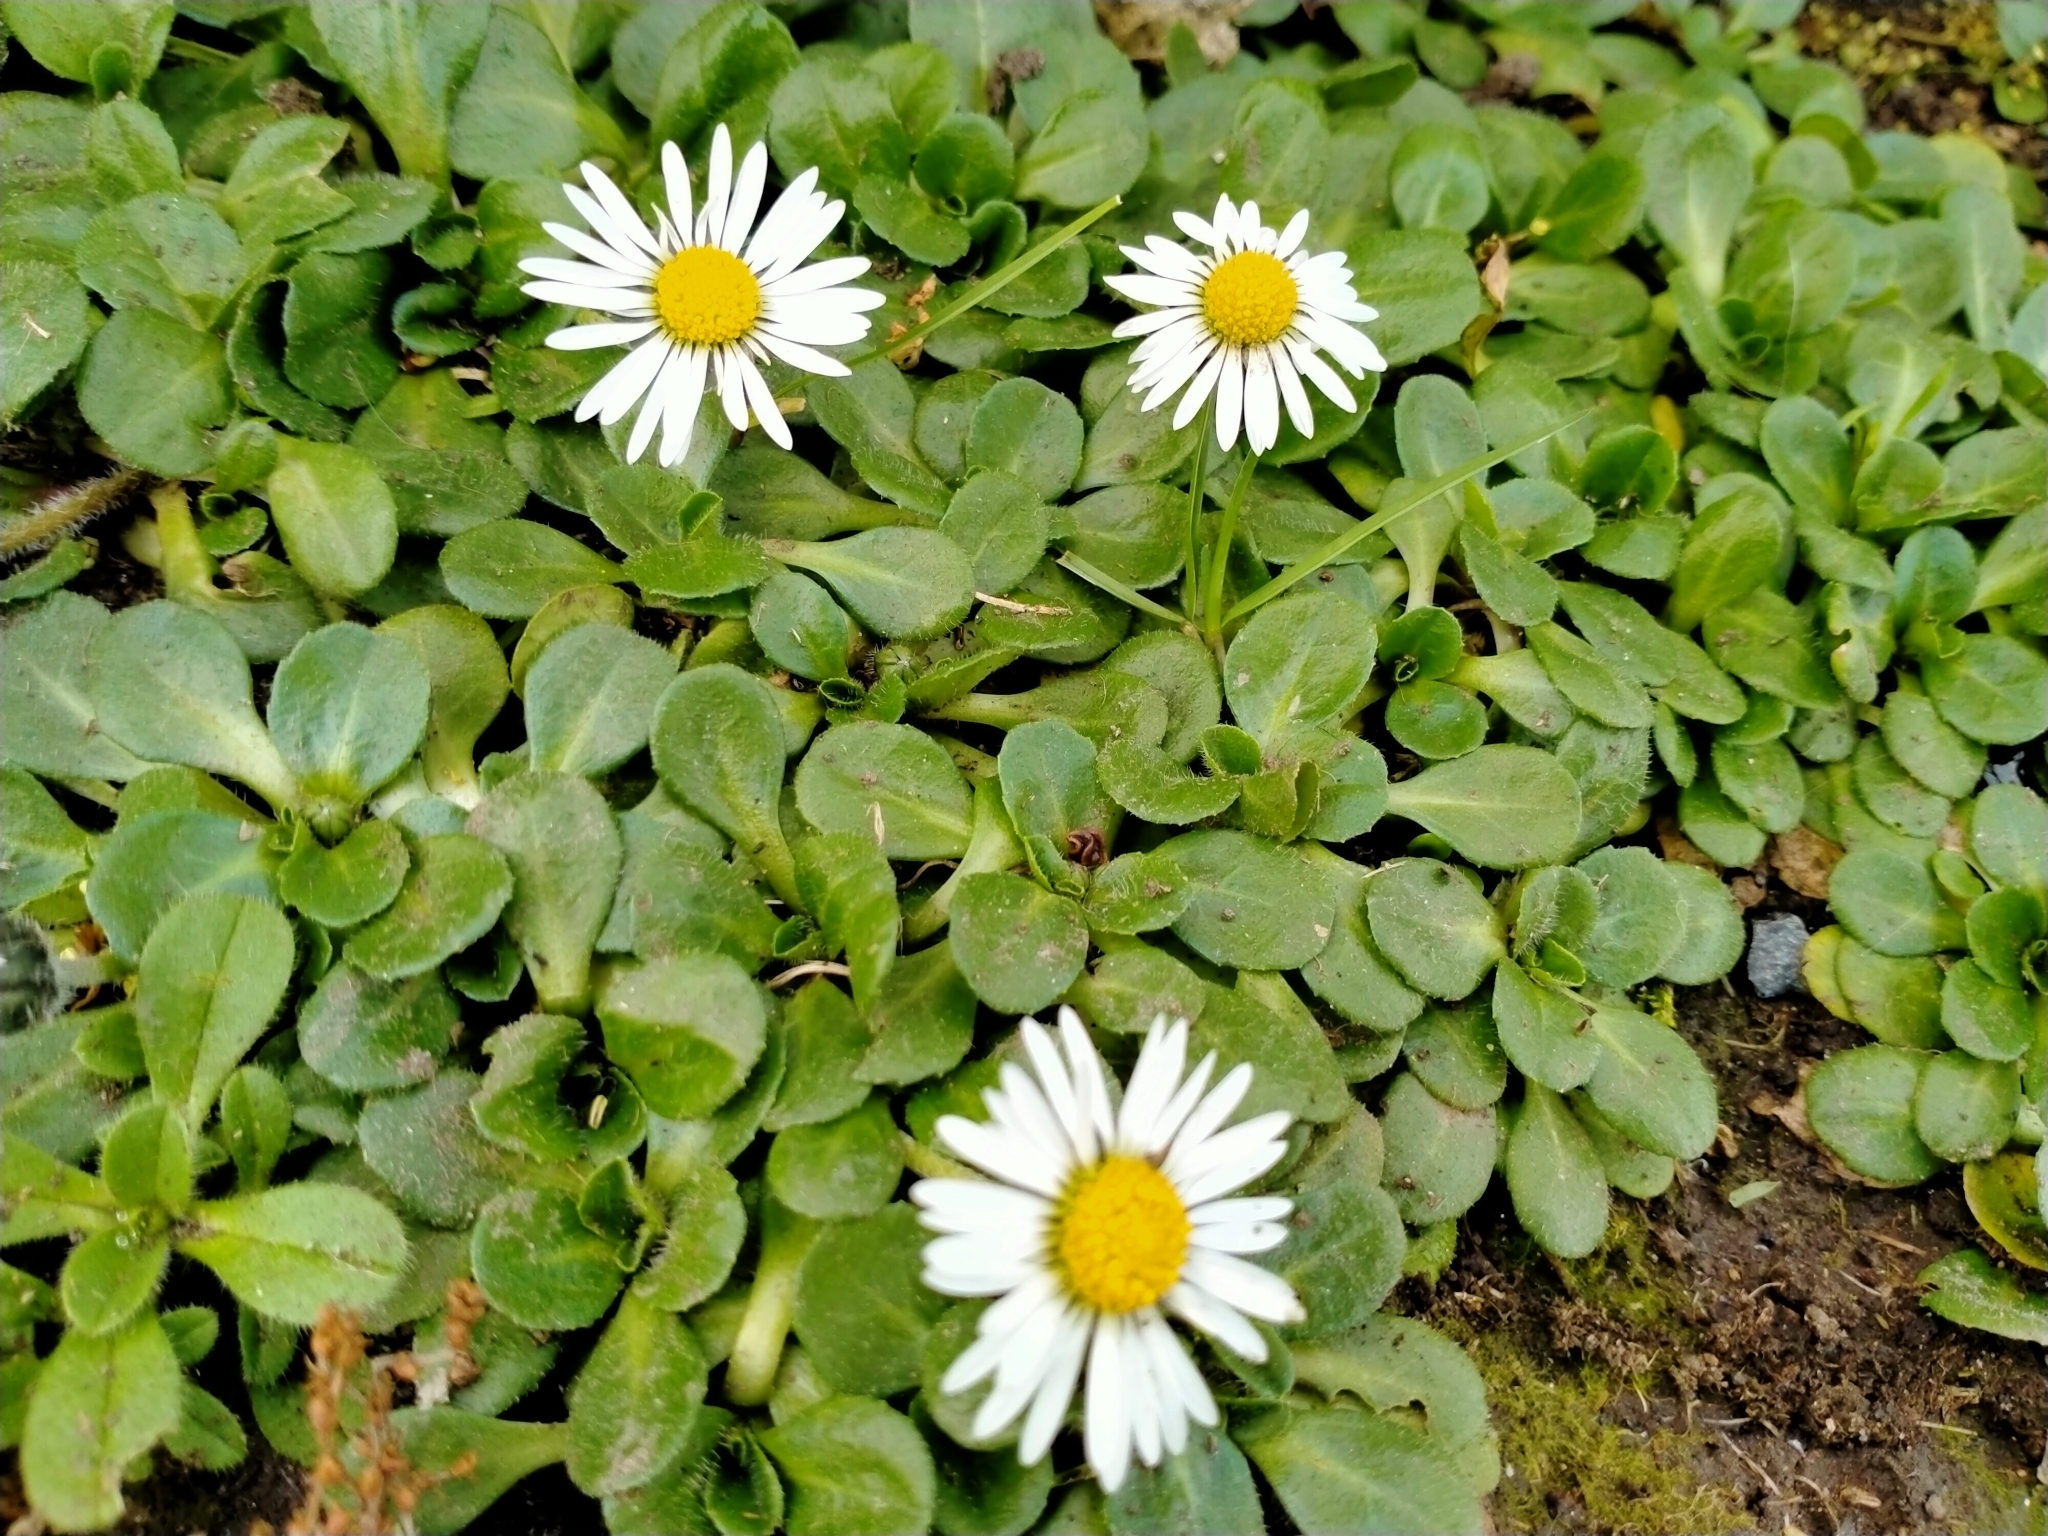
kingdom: Plantae
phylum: Tracheophyta
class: Magnoliopsida
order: Asterales
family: Asteraceae
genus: Bellis
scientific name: Bellis perennis
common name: Lawndaisy
